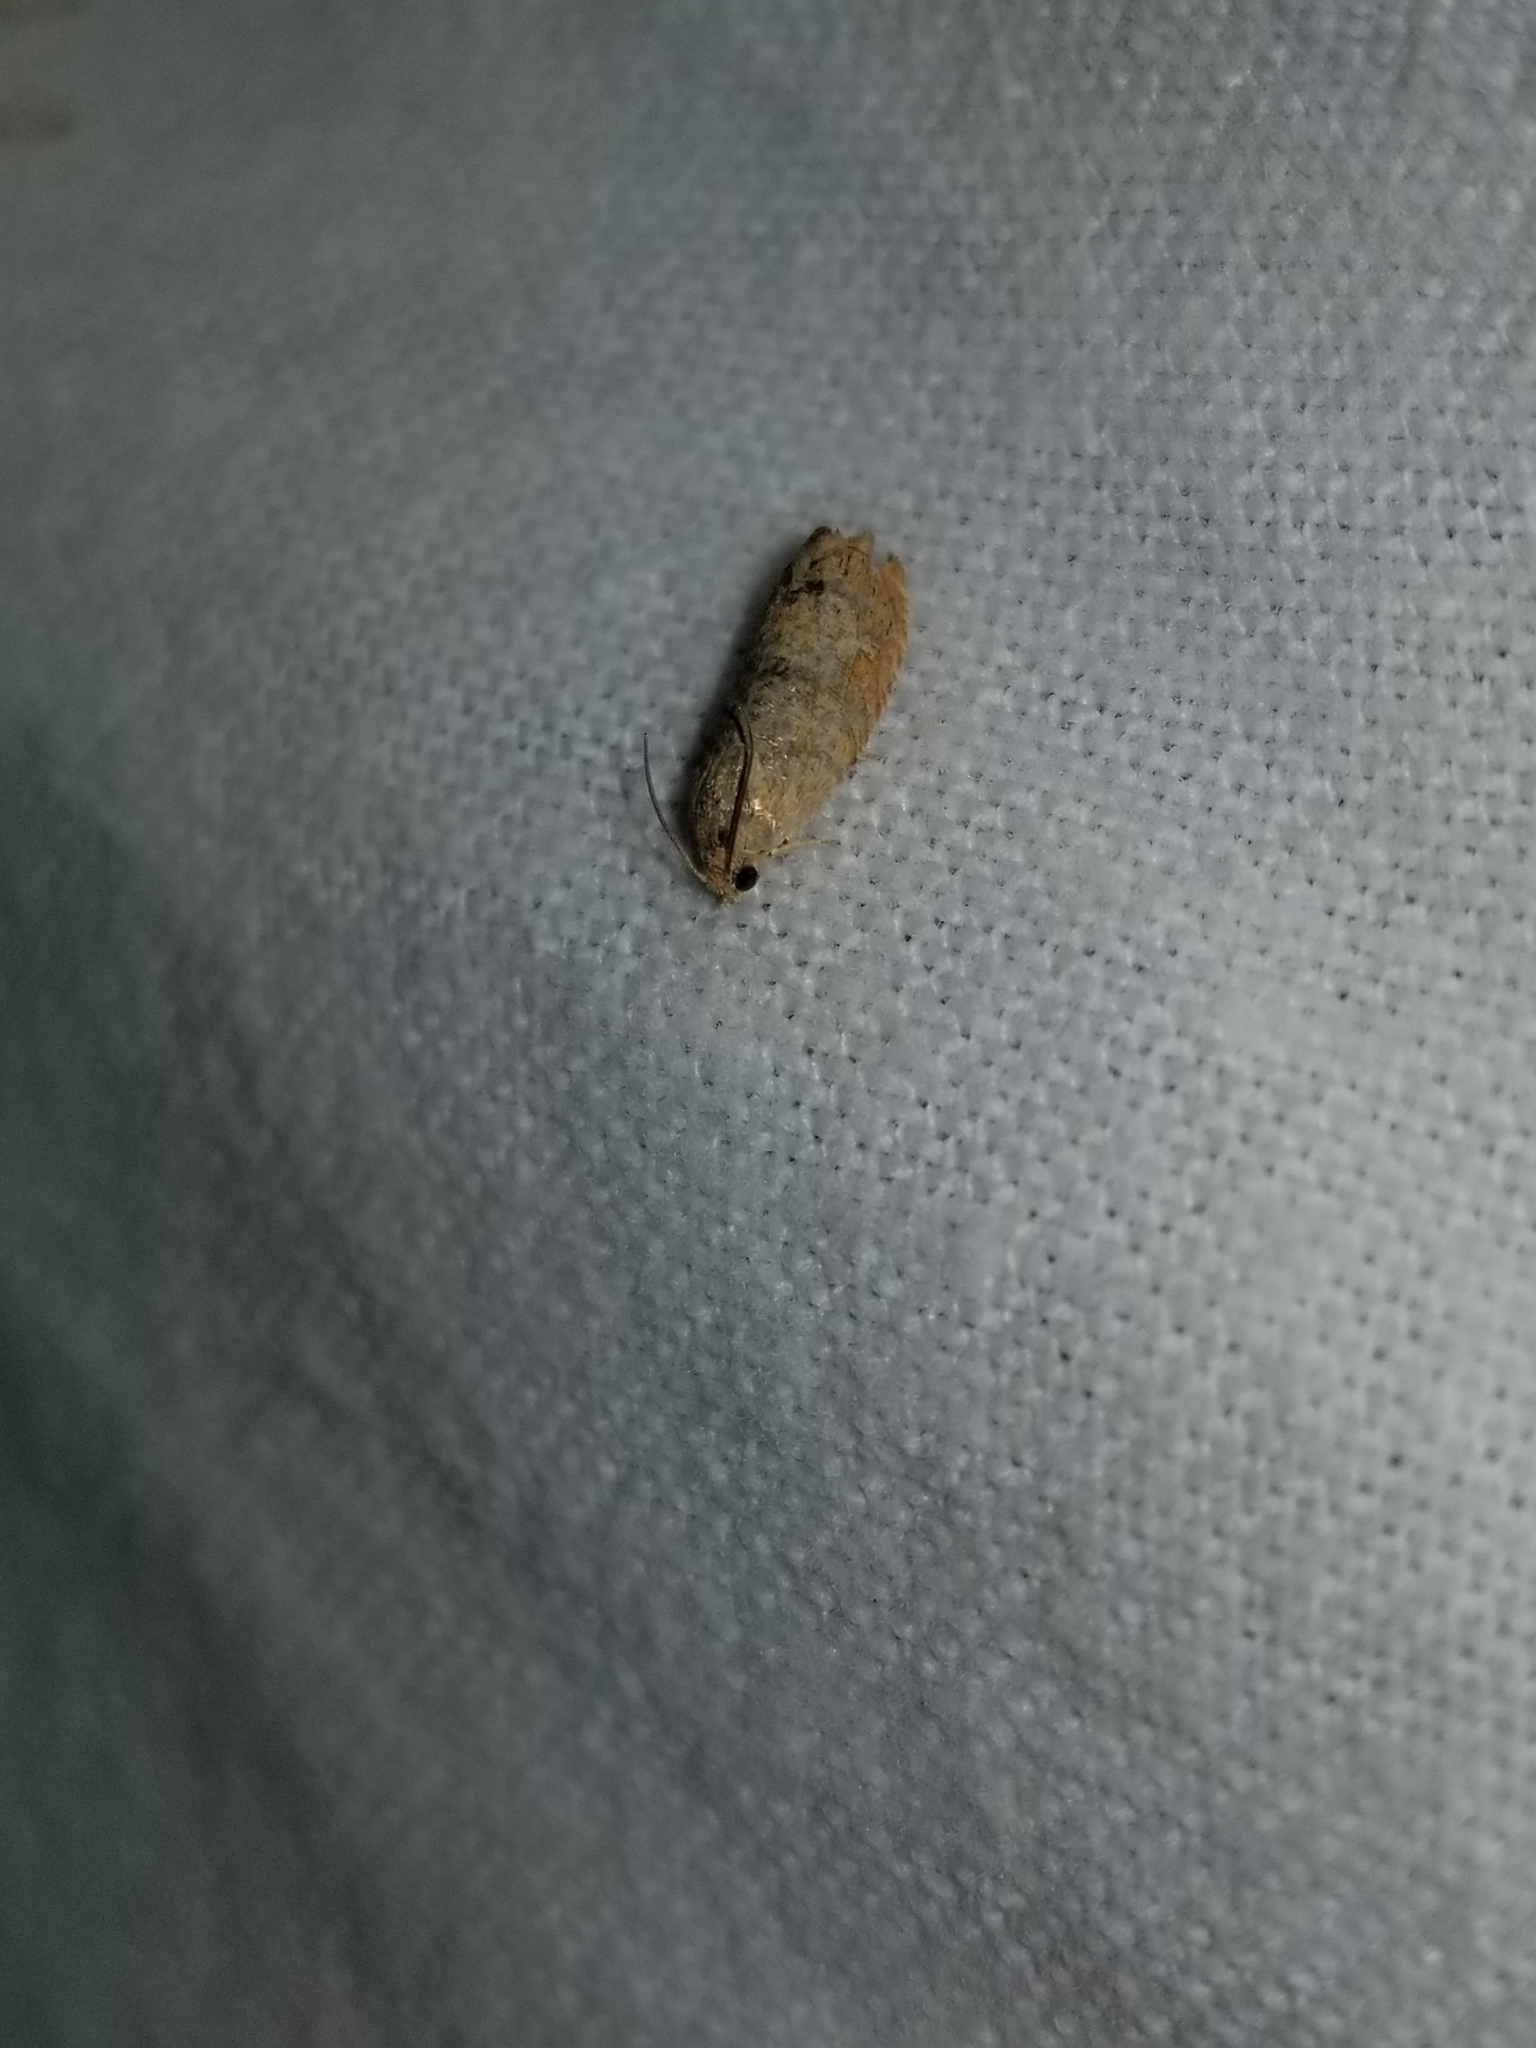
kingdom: Animalia
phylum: Arthropoda
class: Insecta
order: Lepidoptera
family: Tortricidae
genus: Cydia
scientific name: Cydia latiferreana
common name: Filbertworm moth
